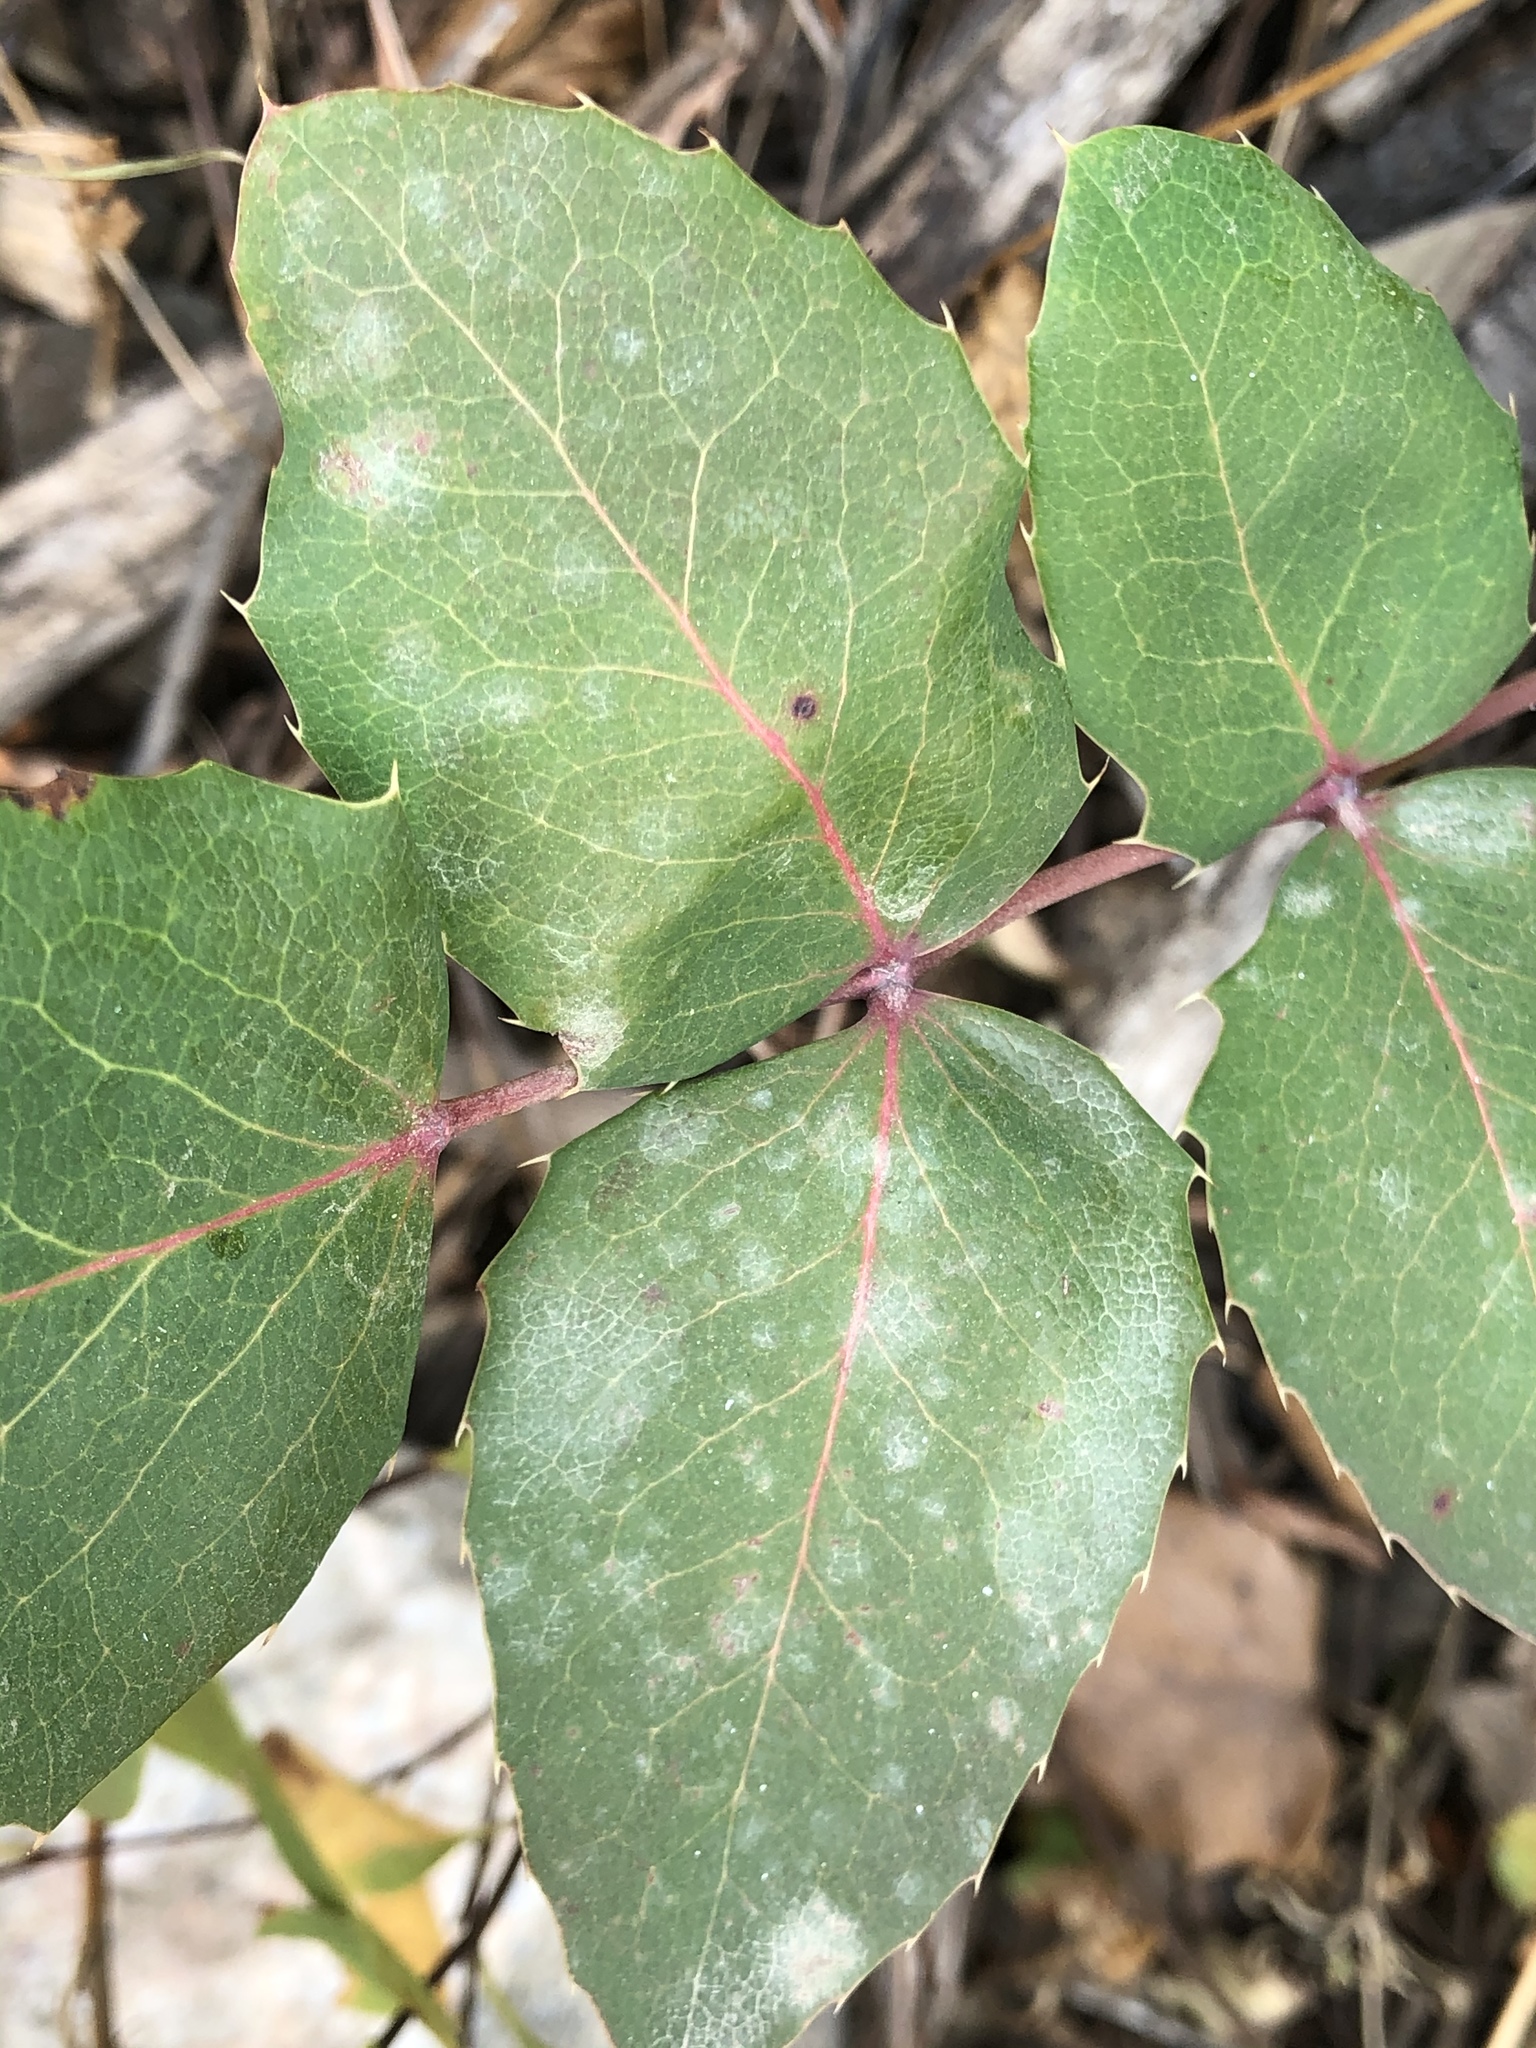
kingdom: Plantae
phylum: Tracheophyta
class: Magnoliopsida
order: Ranunculales
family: Berberidaceae
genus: Mahonia
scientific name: Mahonia repens
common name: Creeping oregon-grape
